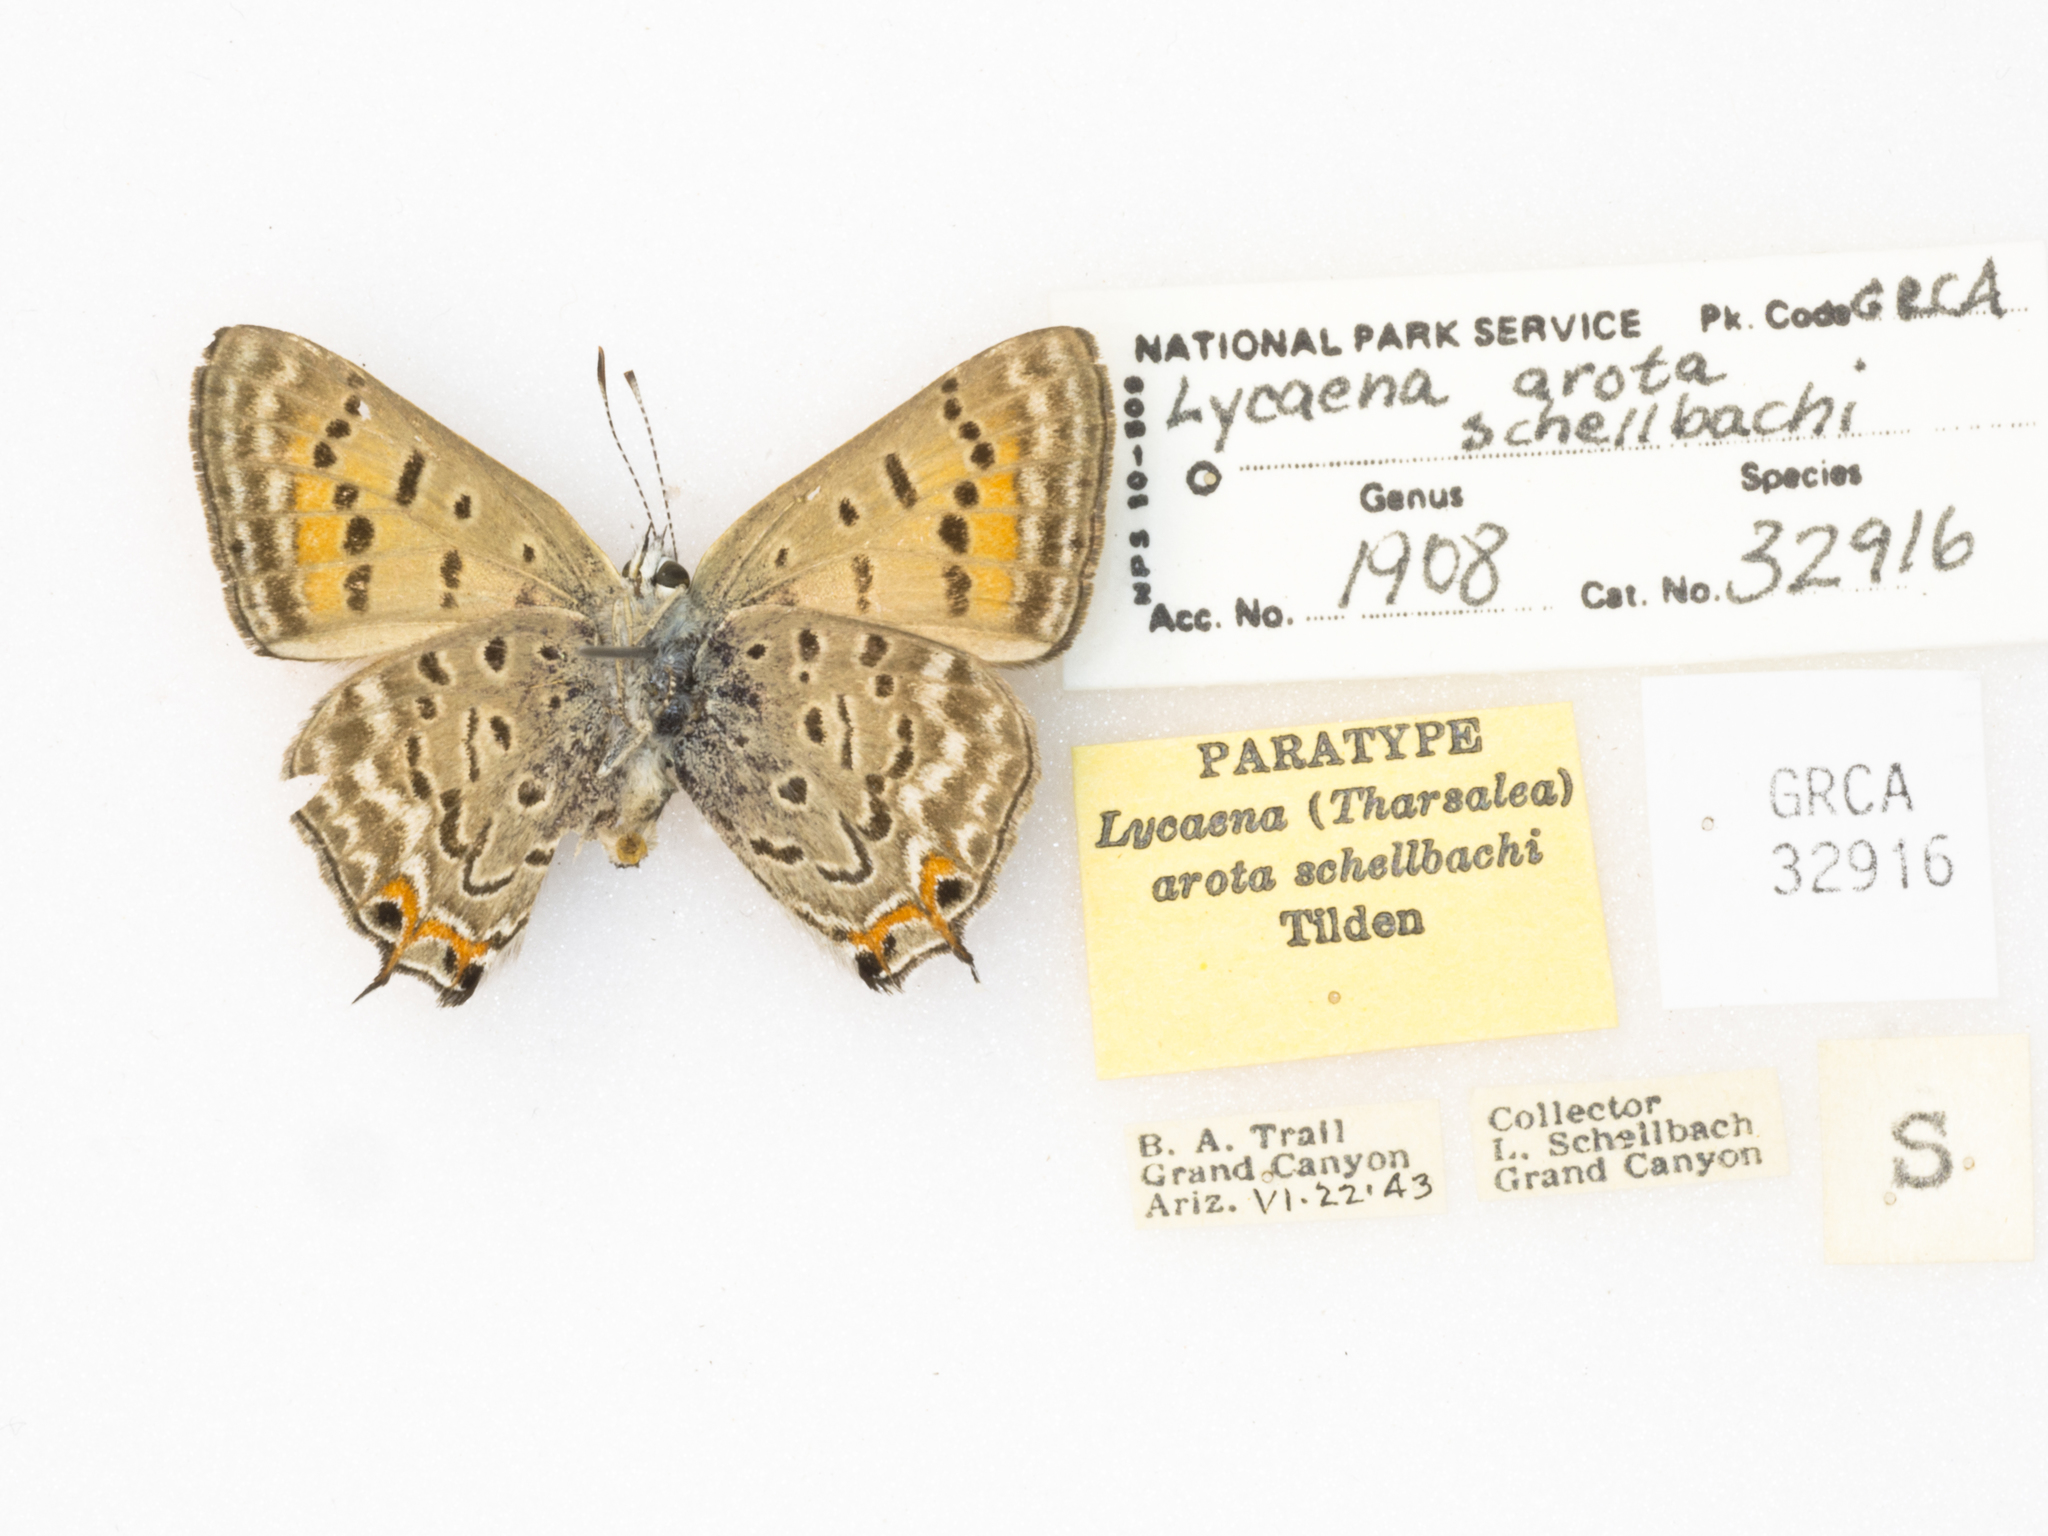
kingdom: Animalia
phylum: Arthropoda
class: Insecta
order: Lepidoptera
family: Lycaenidae
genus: Tharsalea
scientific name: Tharsalea arota
